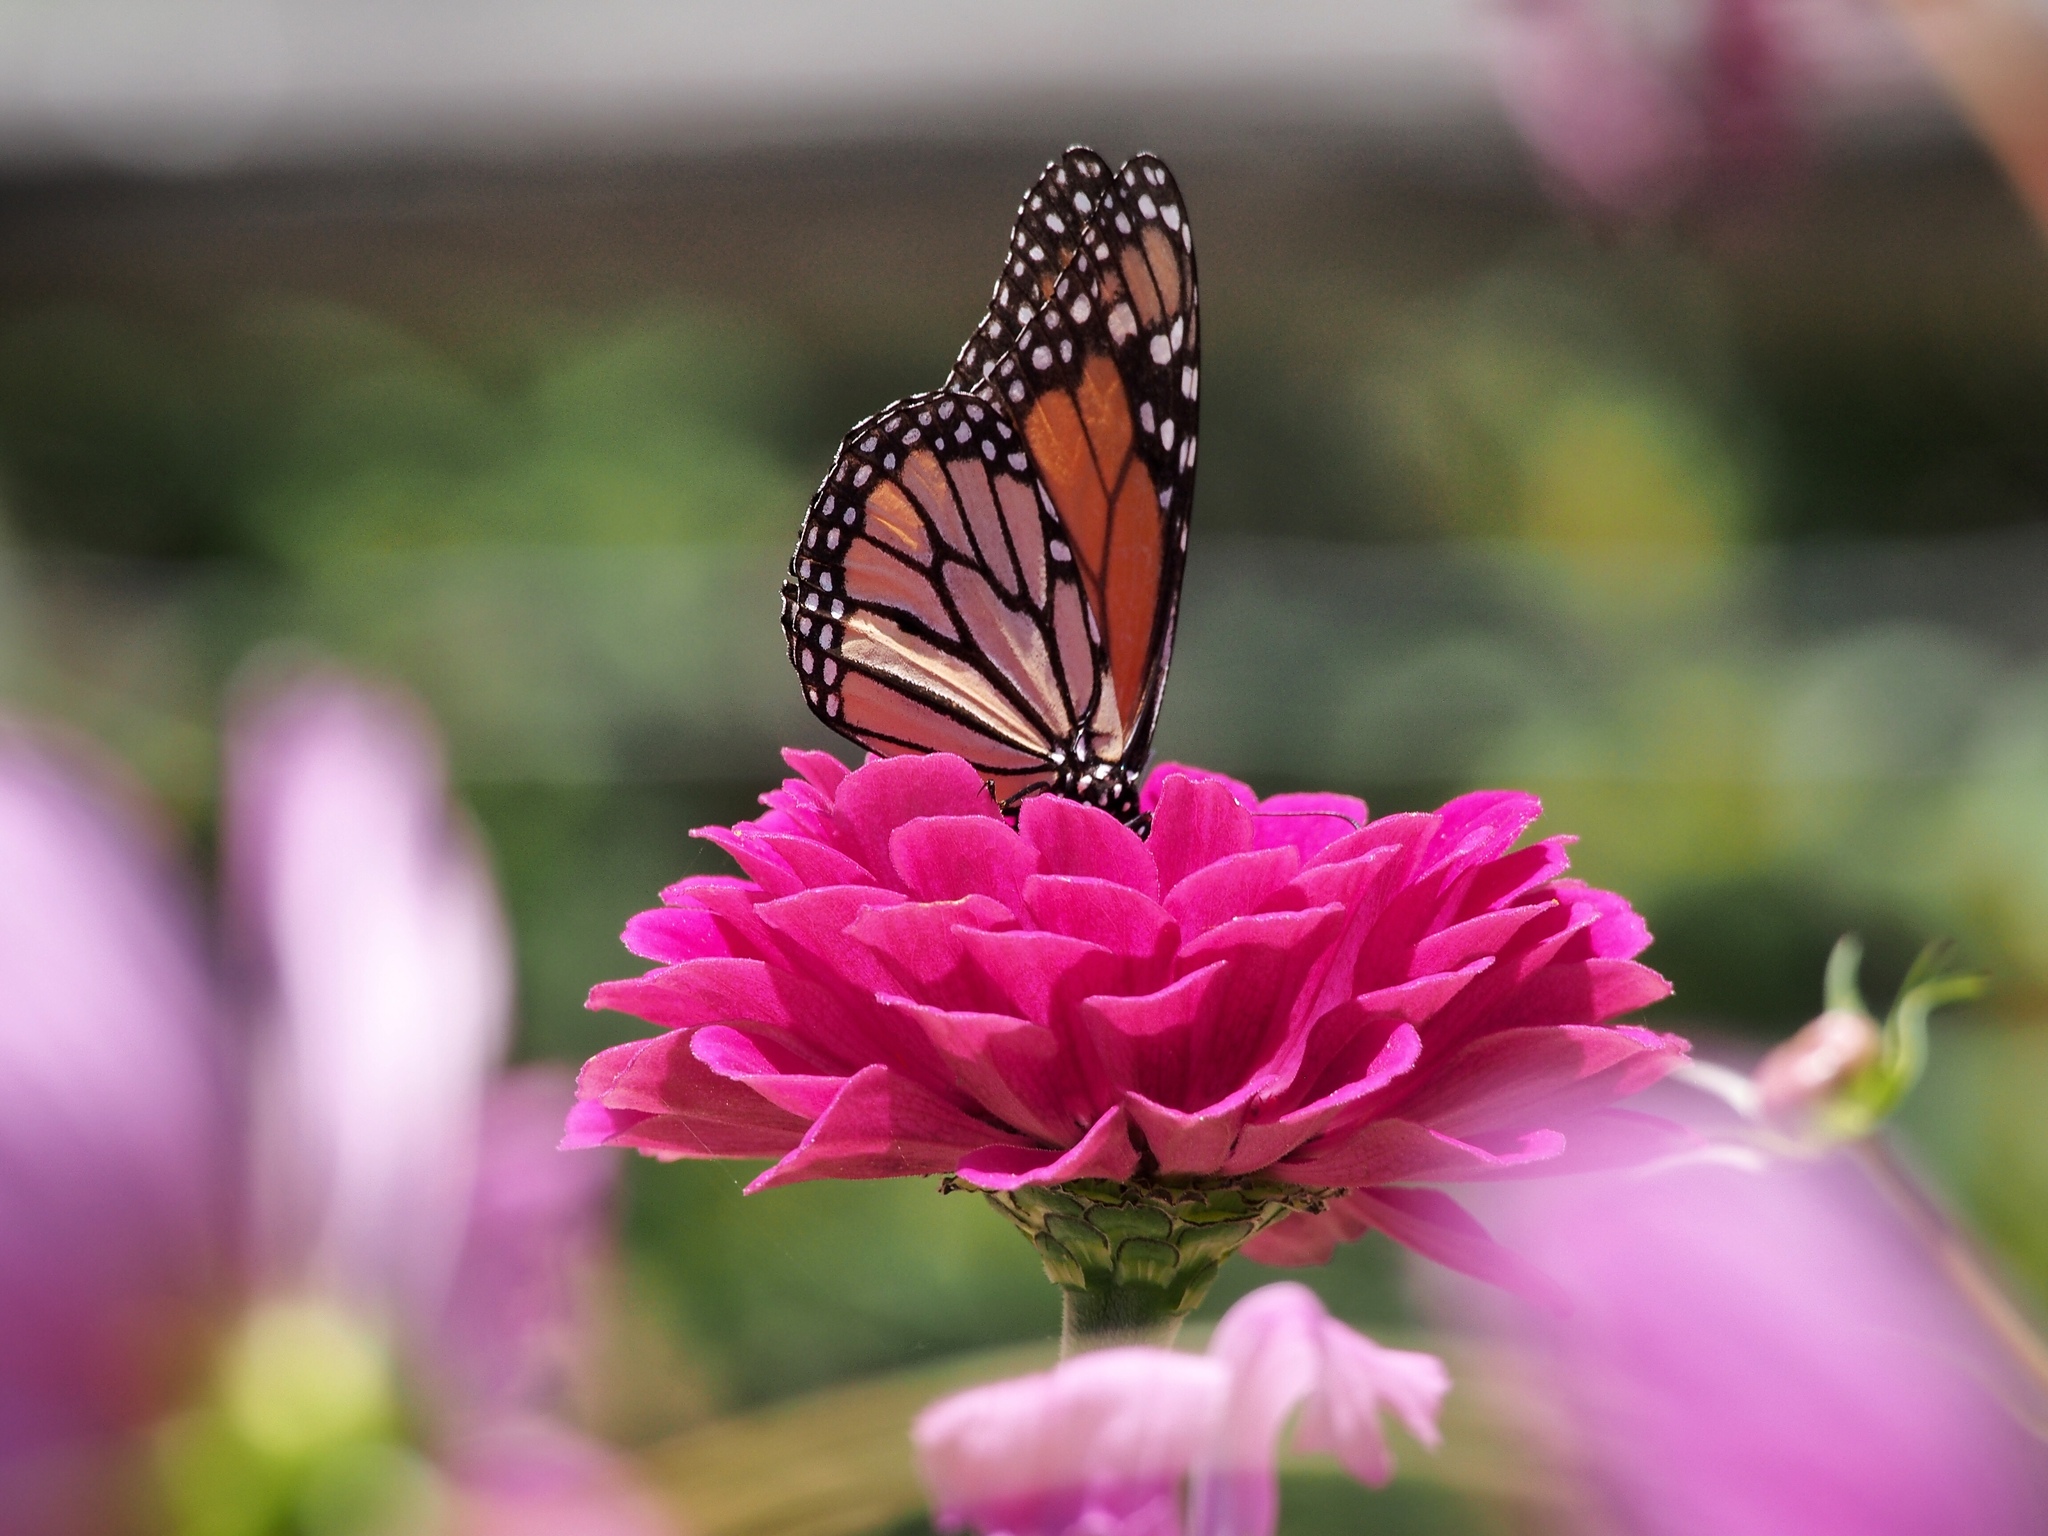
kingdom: Animalia
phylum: Arthropoda
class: Insecta
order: Lepidoptera
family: Nymphalidae
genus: Danaus
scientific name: Danaus plexippus
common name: Monarch
